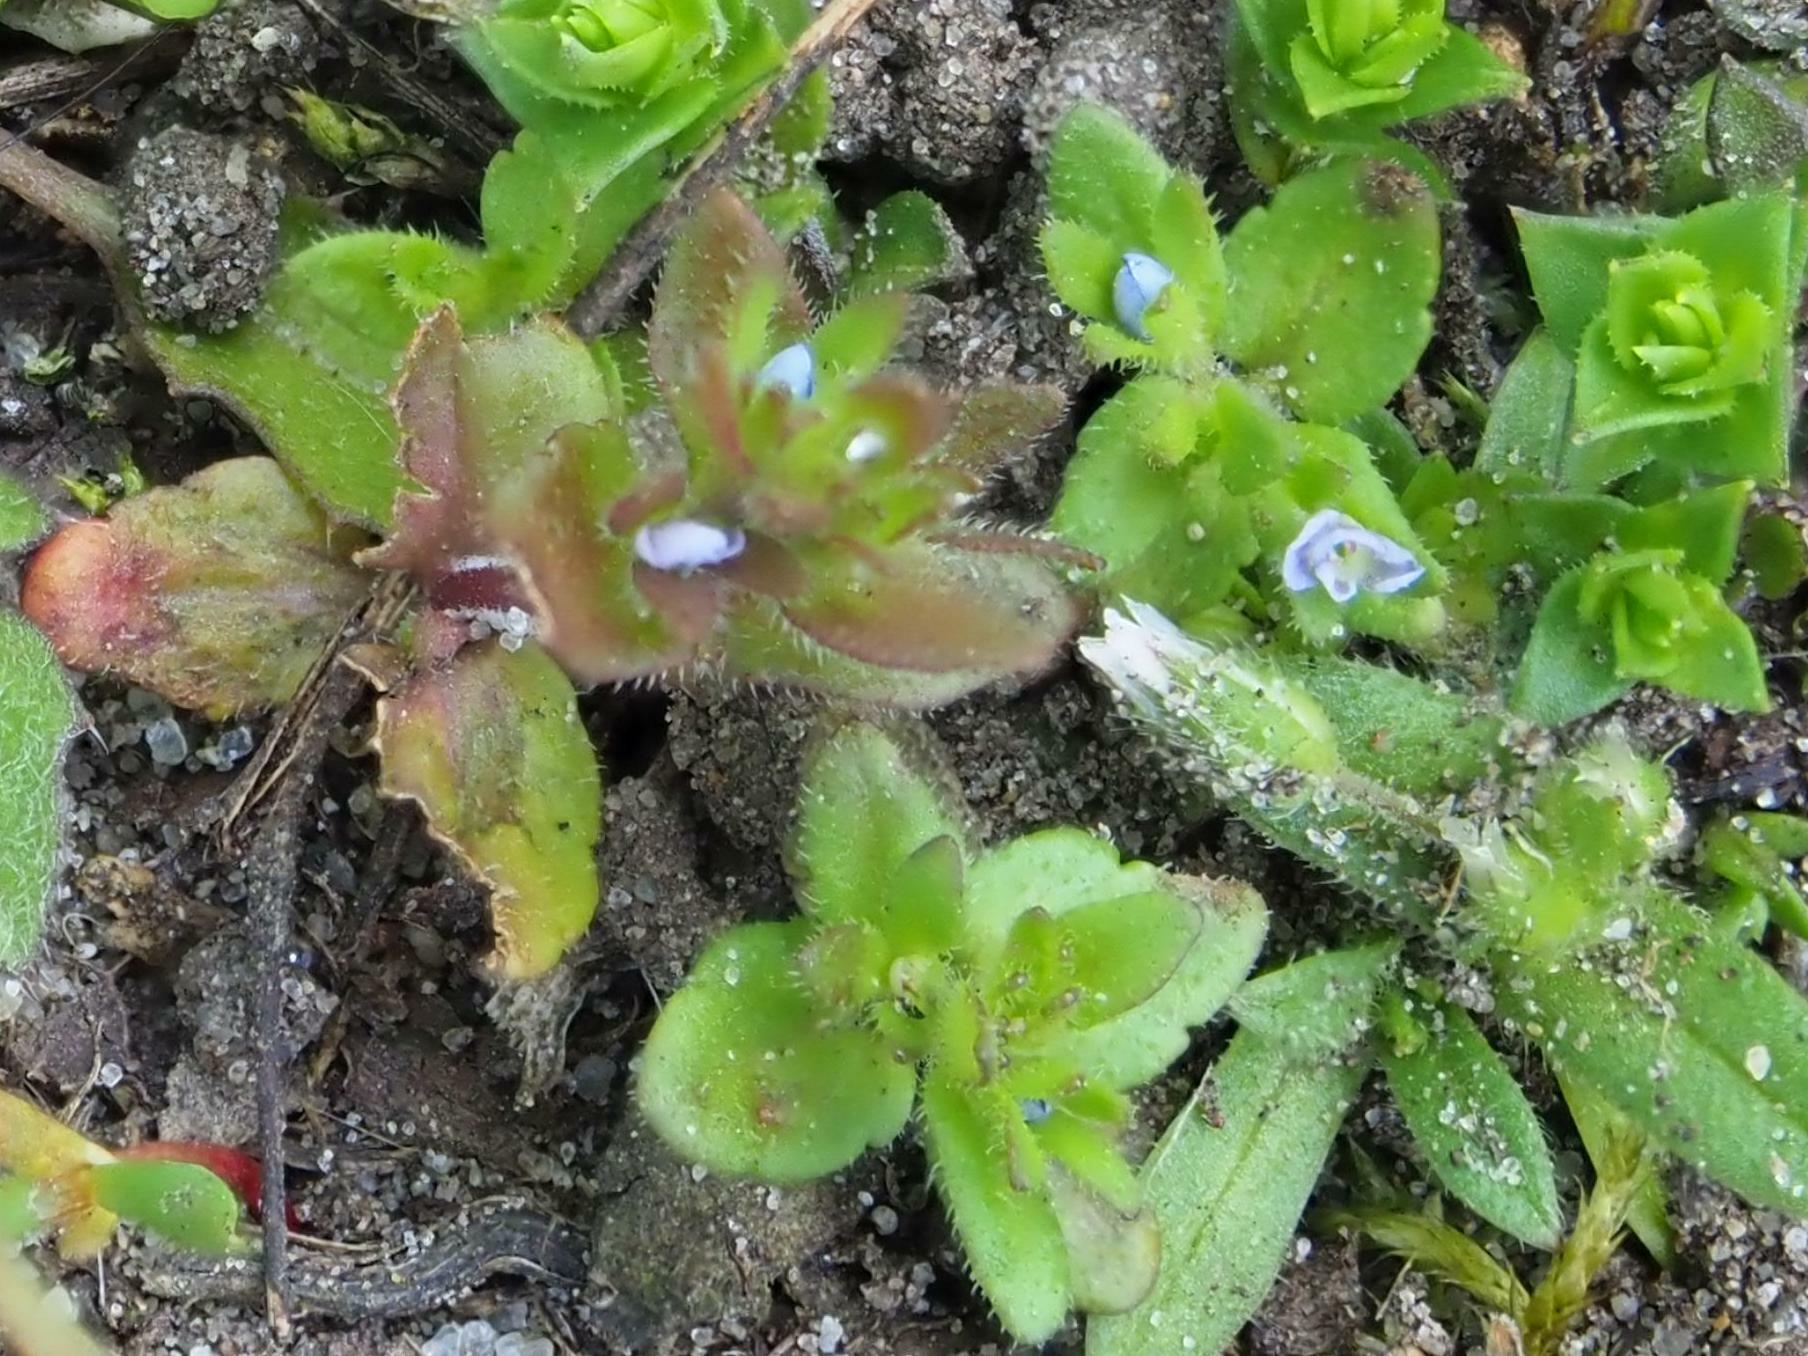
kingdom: Plantae
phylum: Tracheophyta
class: Magnoliopsida
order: Lamiales
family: Plantaginaceae
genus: Veronica
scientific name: Veronica arvensis
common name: Corn speedwell
